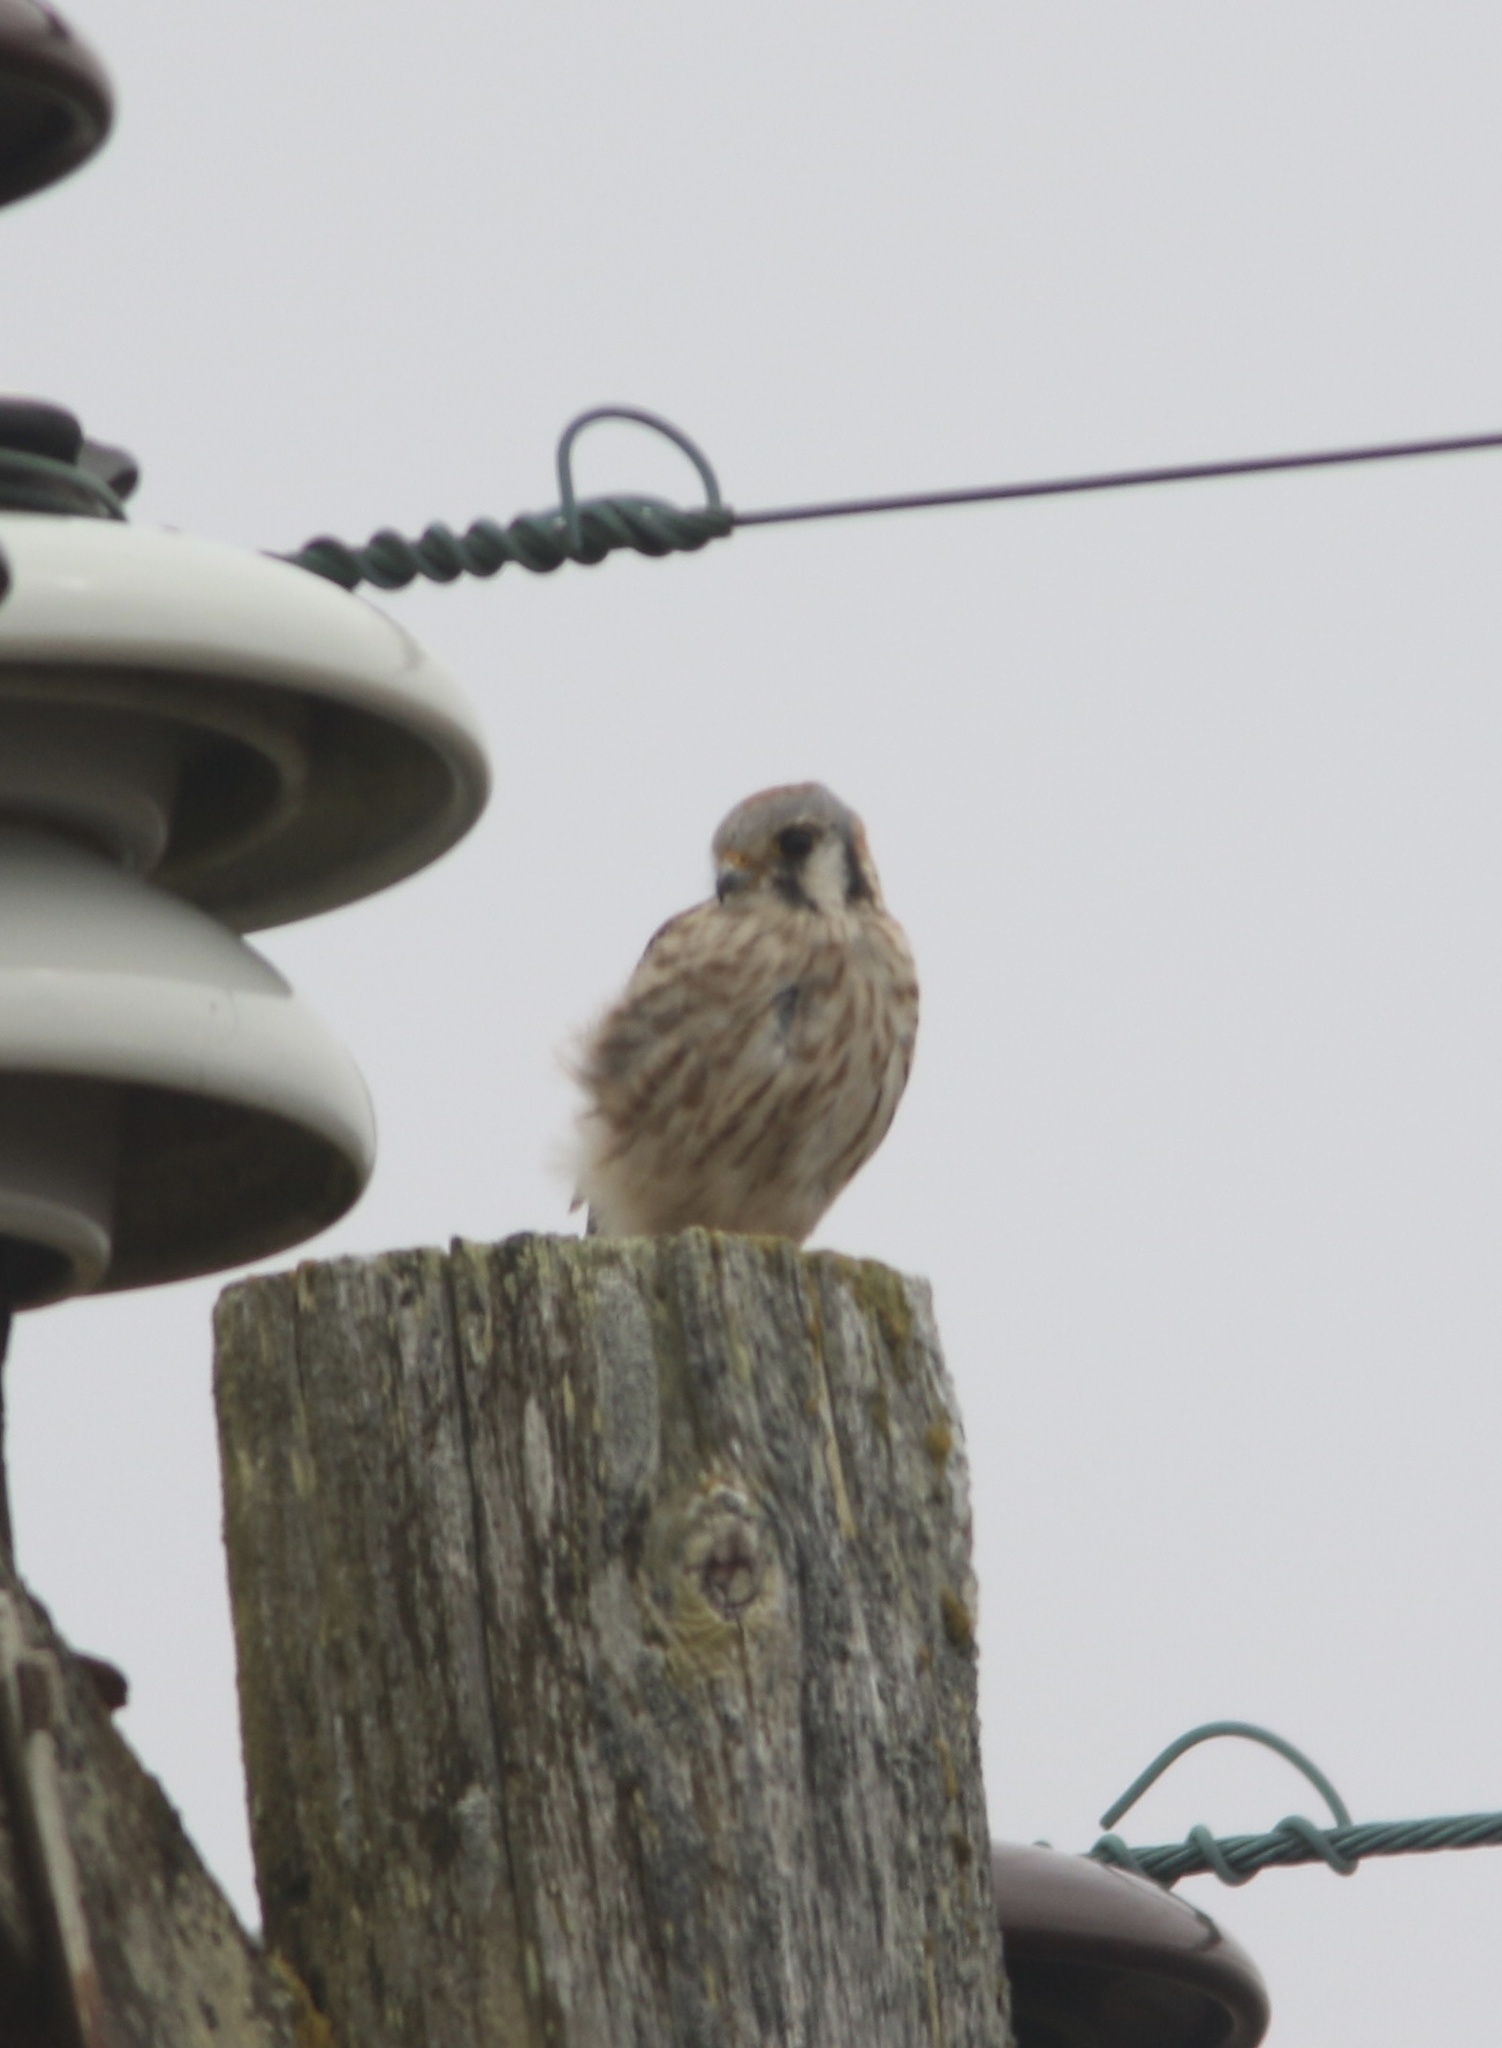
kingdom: Animalia
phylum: Chordata
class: Aves
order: Falconiformes
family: Falconidae
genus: Falco
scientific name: Falco sparverius
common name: American kestrel
